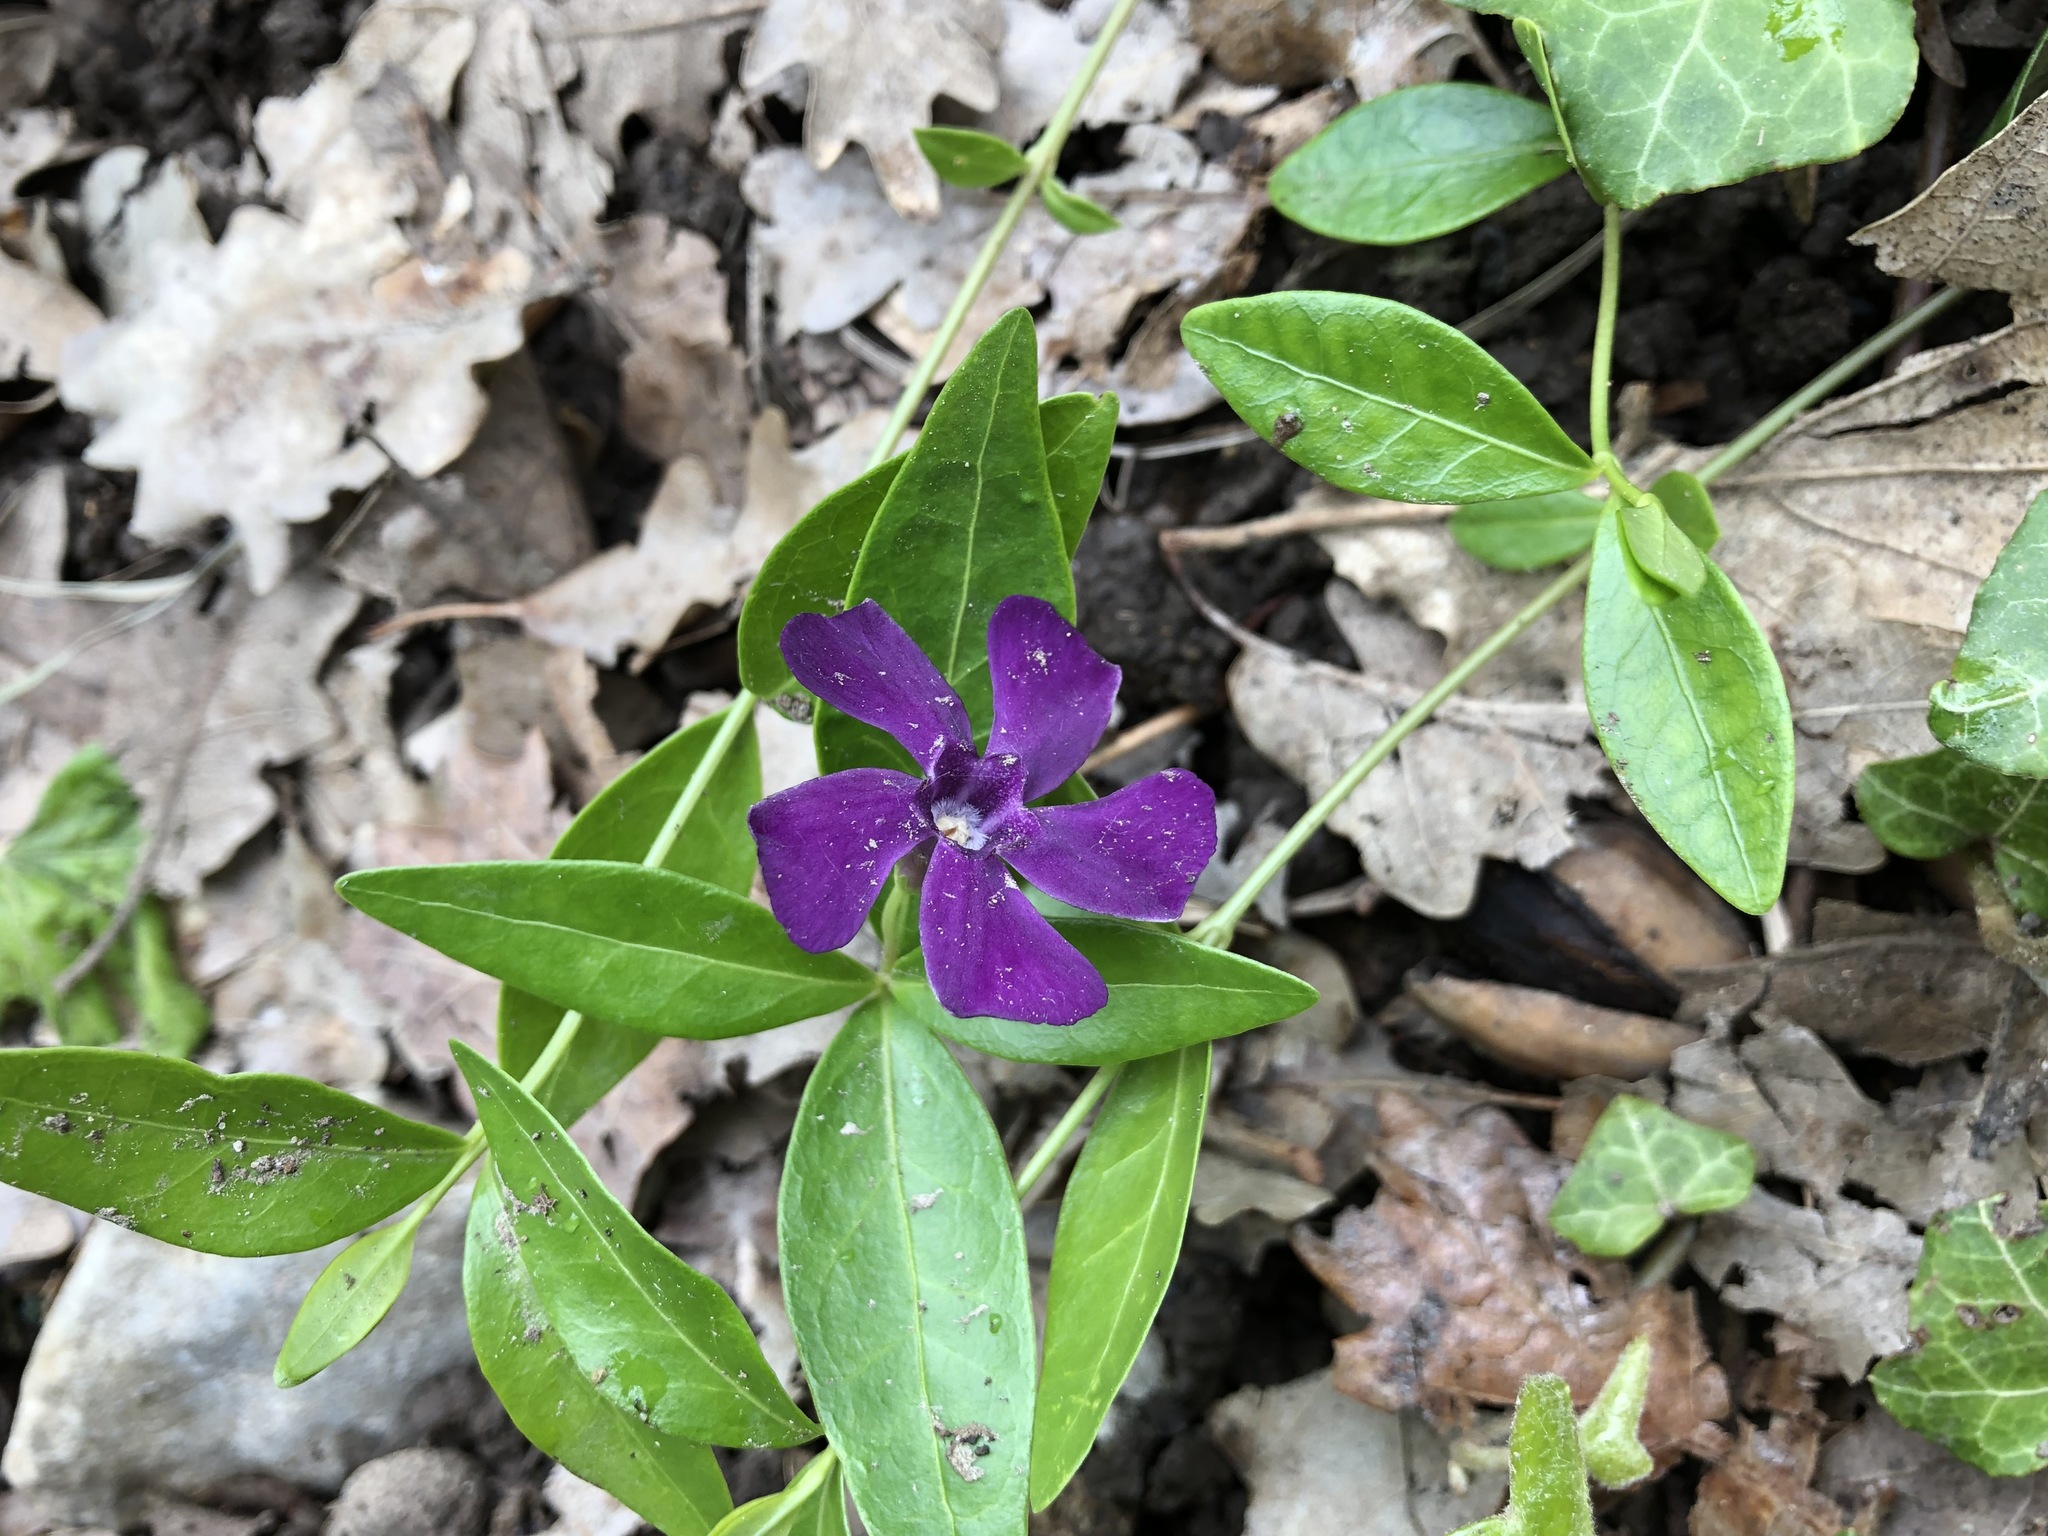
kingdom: Plantae
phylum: Tracheophyta
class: Magnoliopsida
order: Gentianales
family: Apocynaceae
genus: Vinca
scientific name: Vinca minor
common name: Lesser periwinkle
